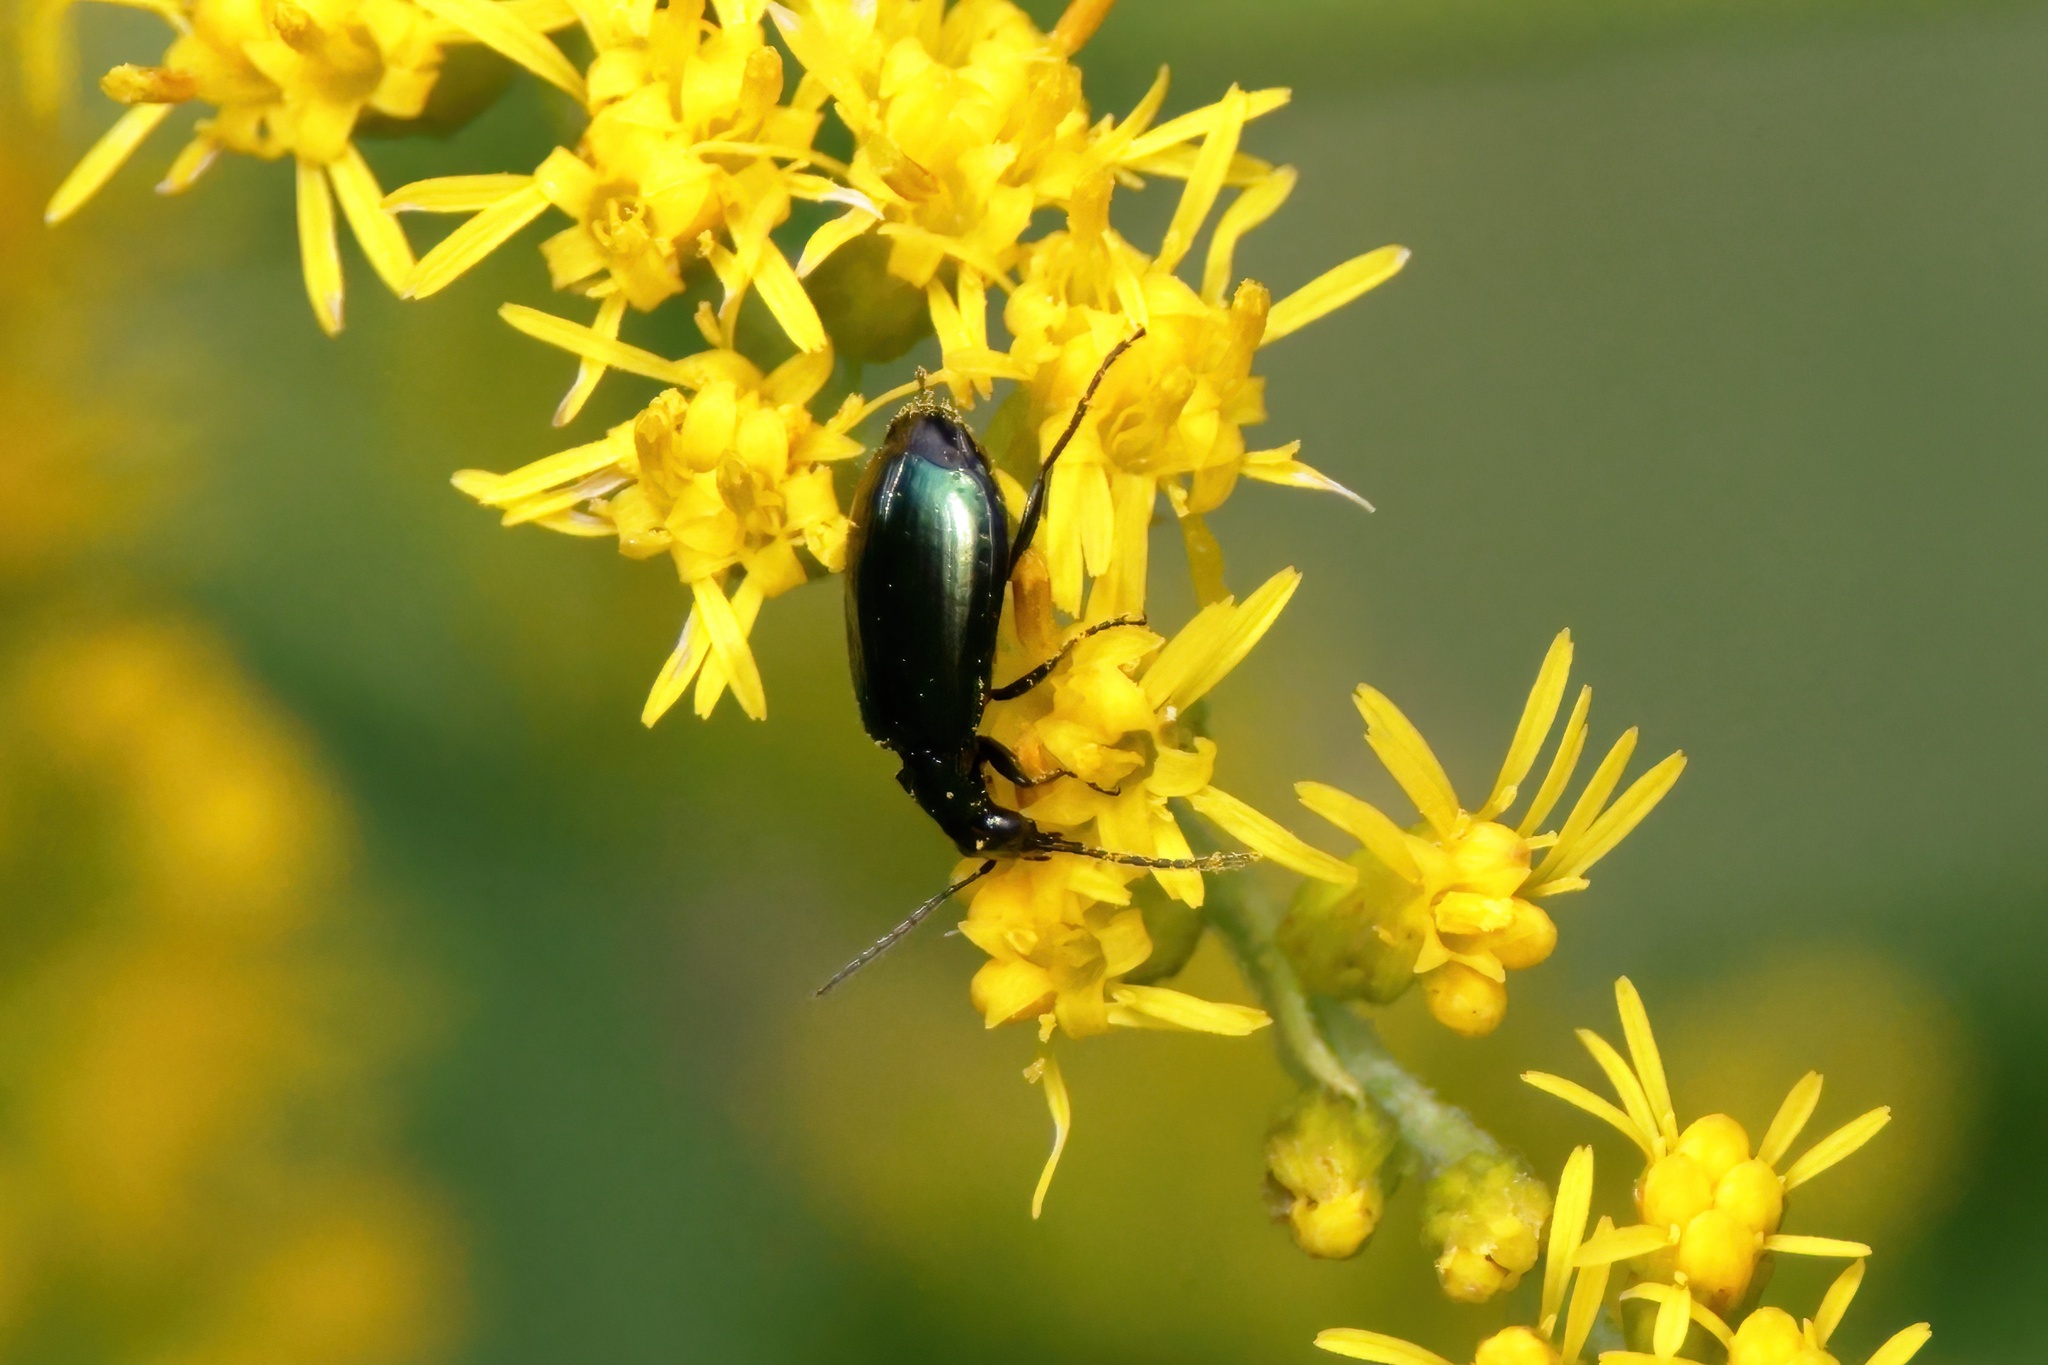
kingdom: Animalia
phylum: Arthropoda
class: Insecta
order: Coleoptera
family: Carabidae
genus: Lebia
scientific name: Lebia viridis
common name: Flower lebia beetle
